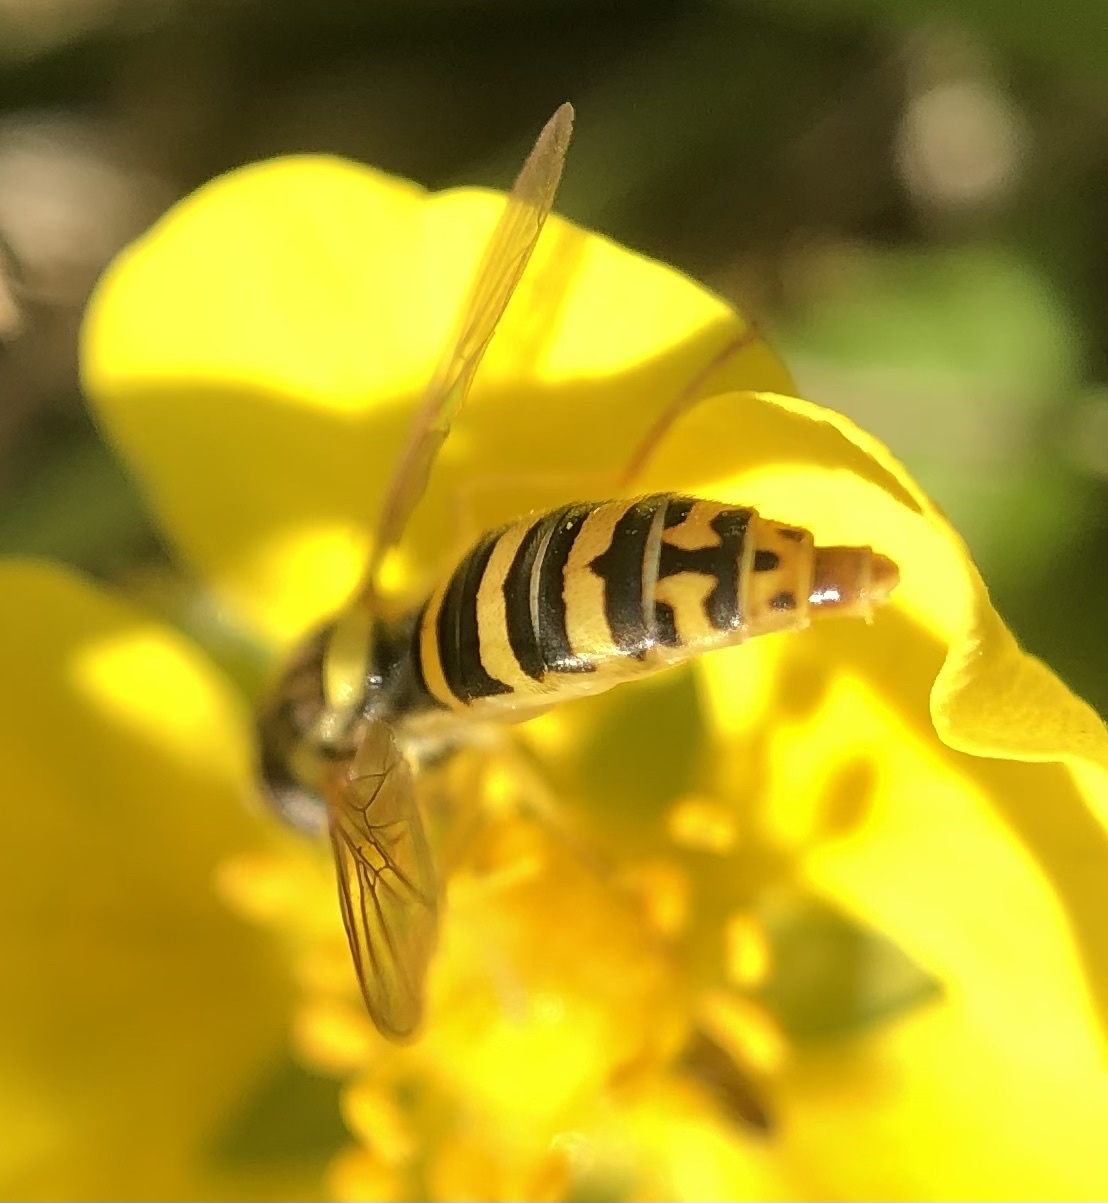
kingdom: Animalia
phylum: Arthropoda
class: Insecta
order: Diptera
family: Syrphidae
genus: Sphaerophoria
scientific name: Sphaerophoria
